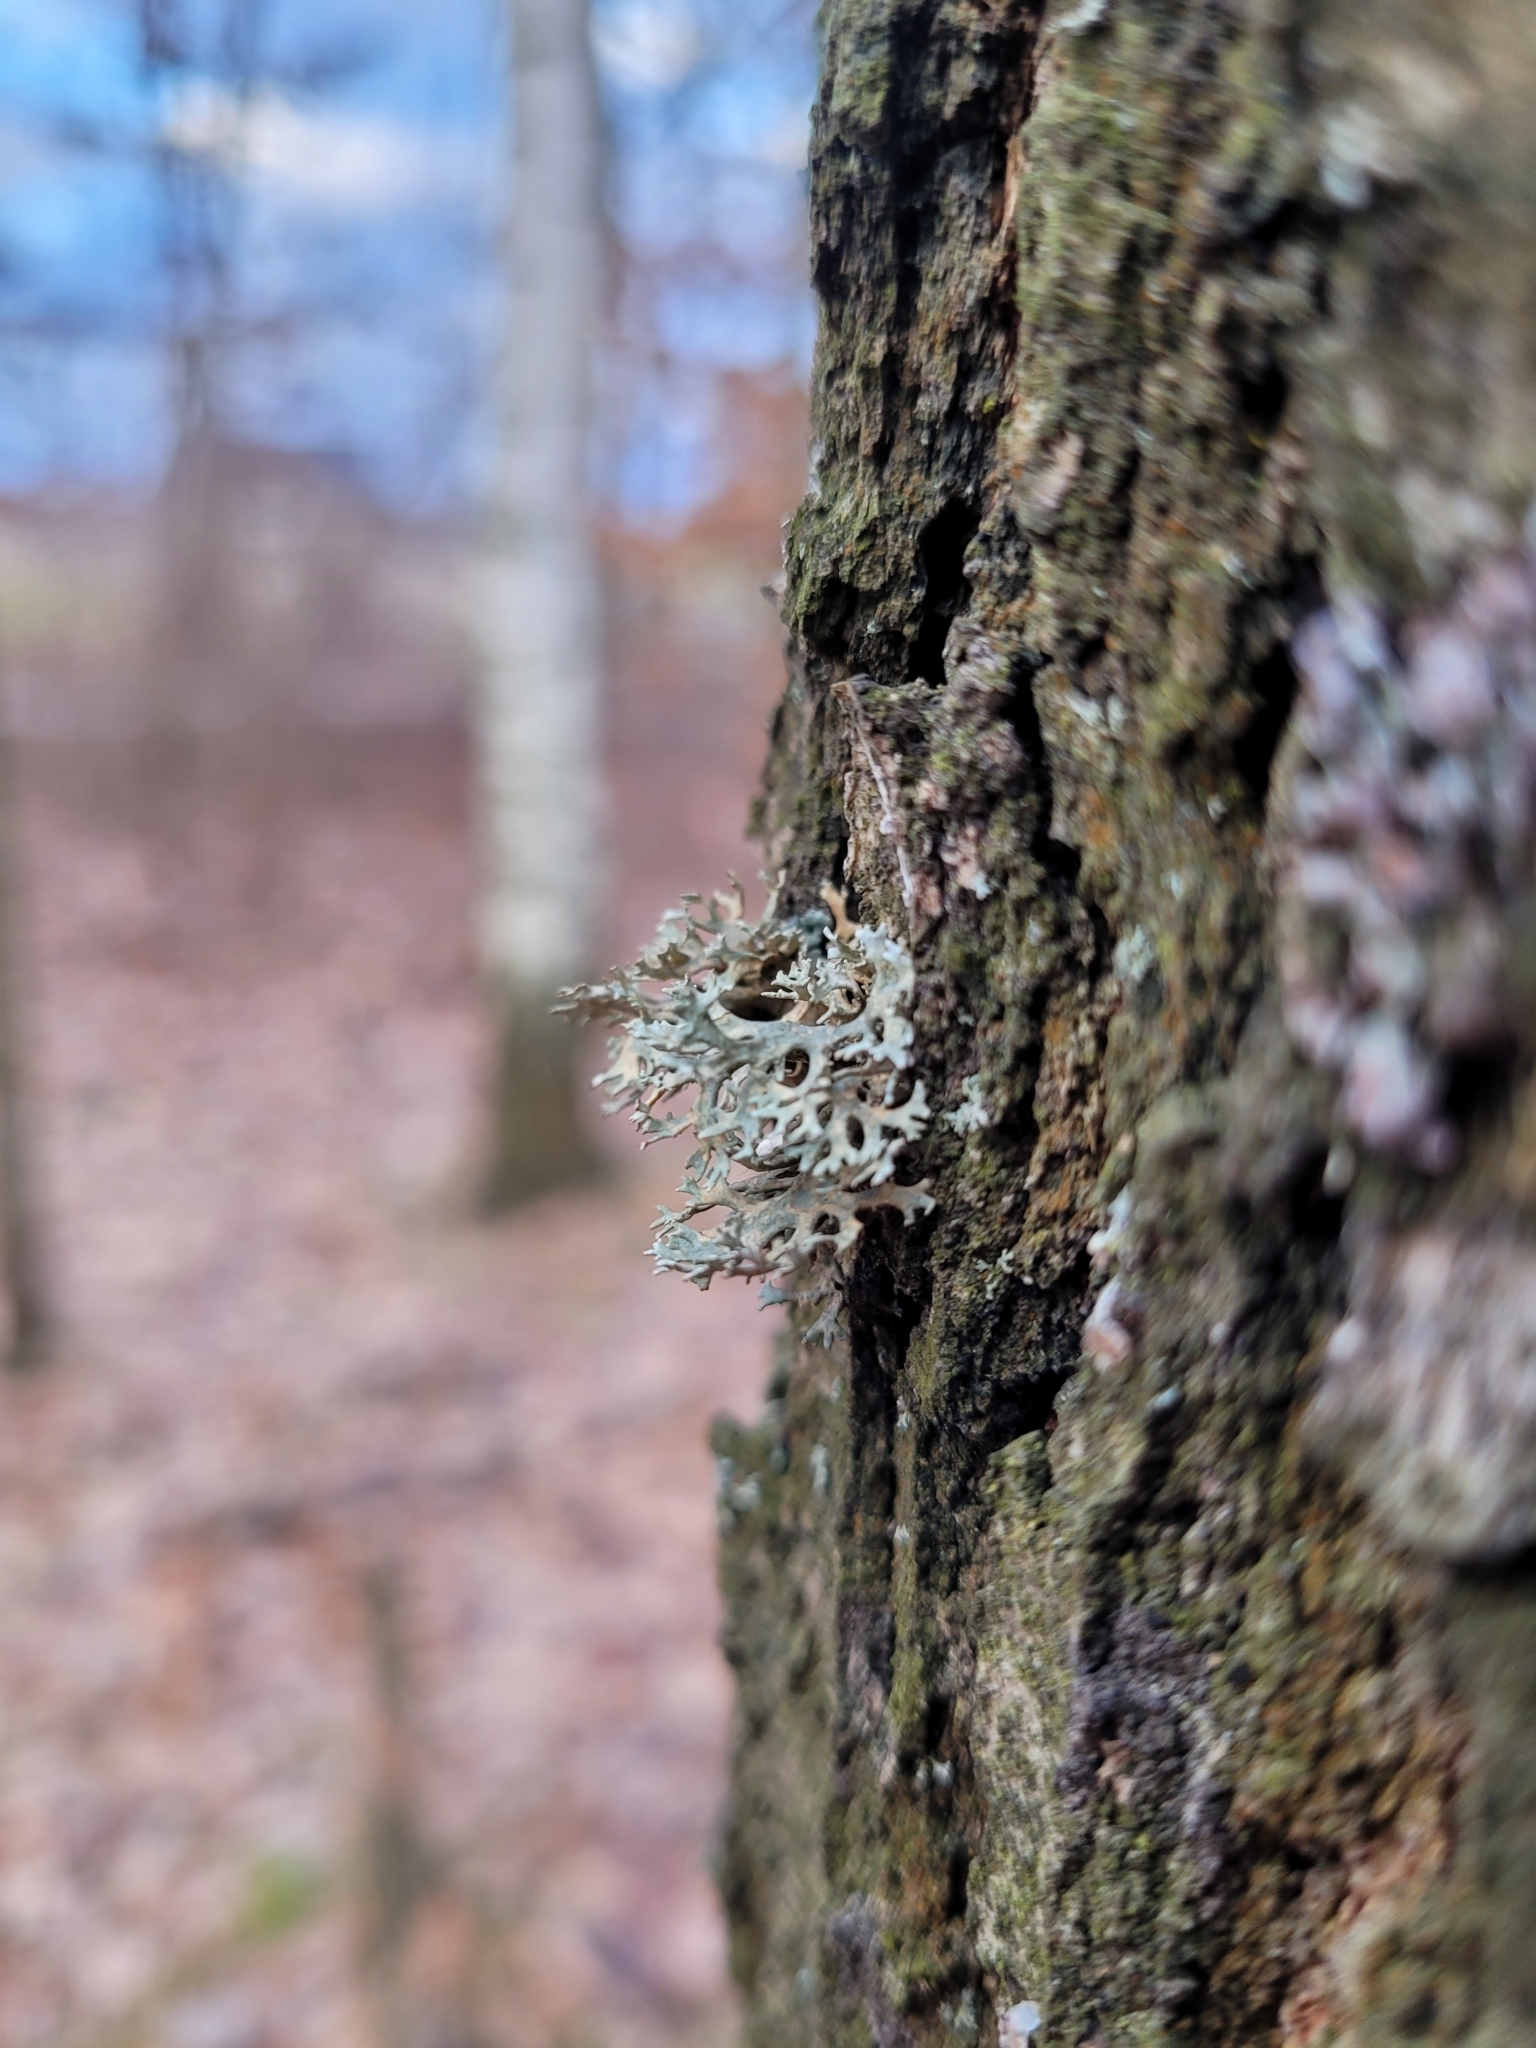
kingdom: Fungi
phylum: Ascomycota
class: Lecanoromycetes
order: Lecanorales
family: Parmeliaceae
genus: Evernia
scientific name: Evernia prunastri
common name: Oak moss
